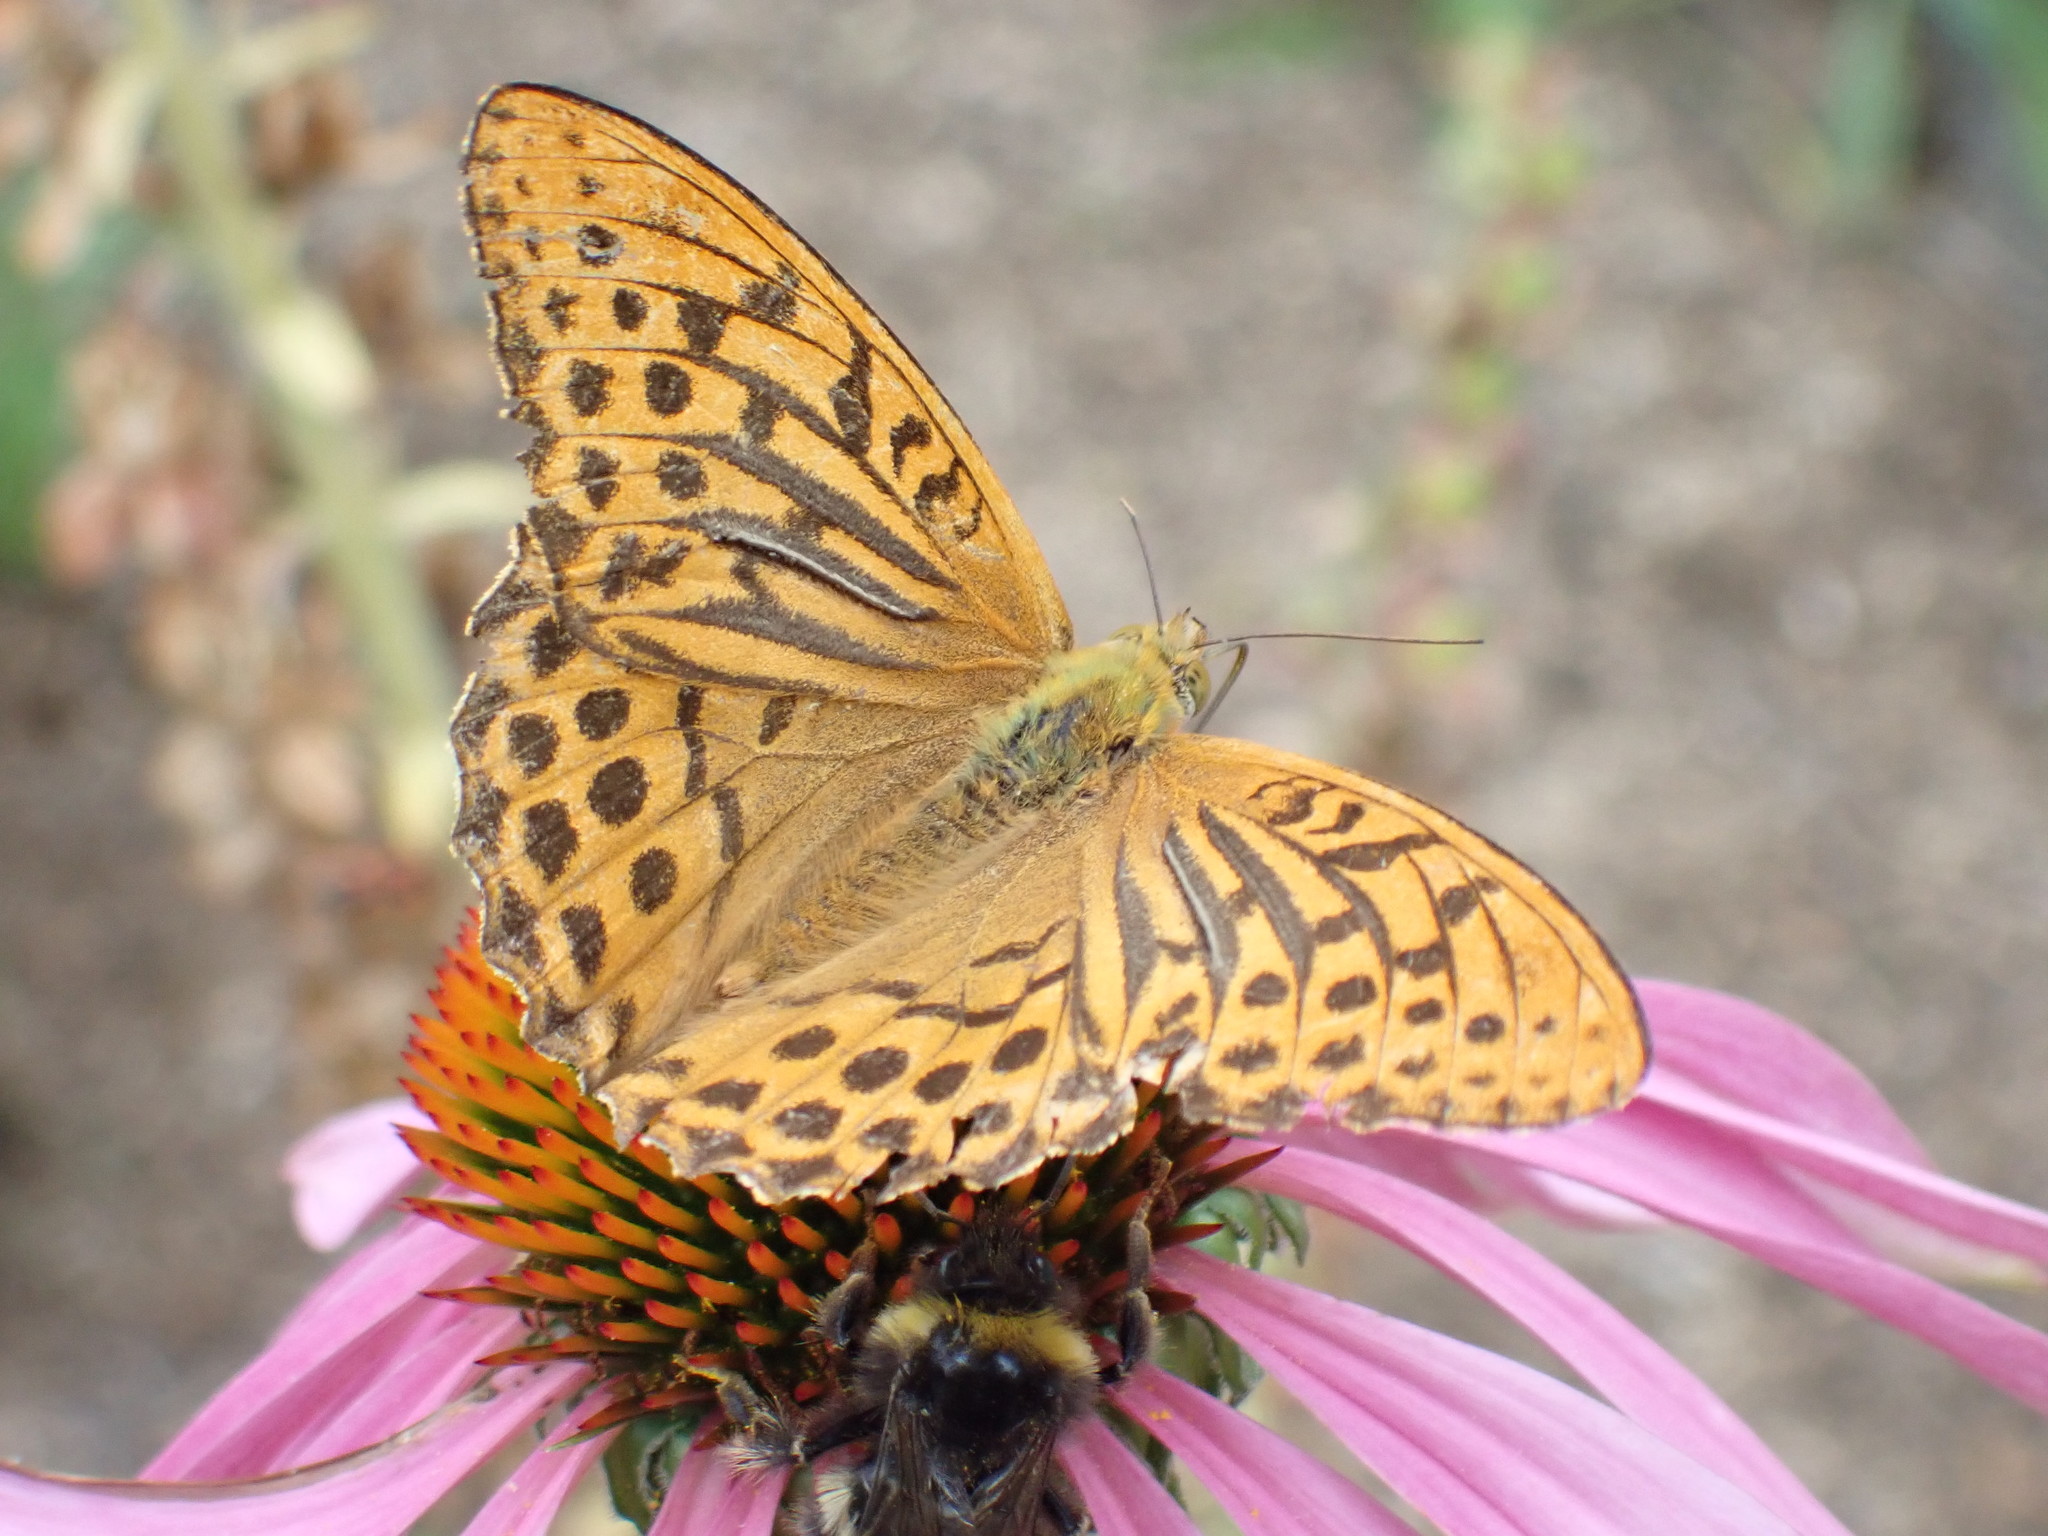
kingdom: Animalia
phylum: Arthropoda
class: Insecta
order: Lepidoptera
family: Nymphalidae
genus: Argynnis
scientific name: Argynnis paphia
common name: Silver-washed fritillary
